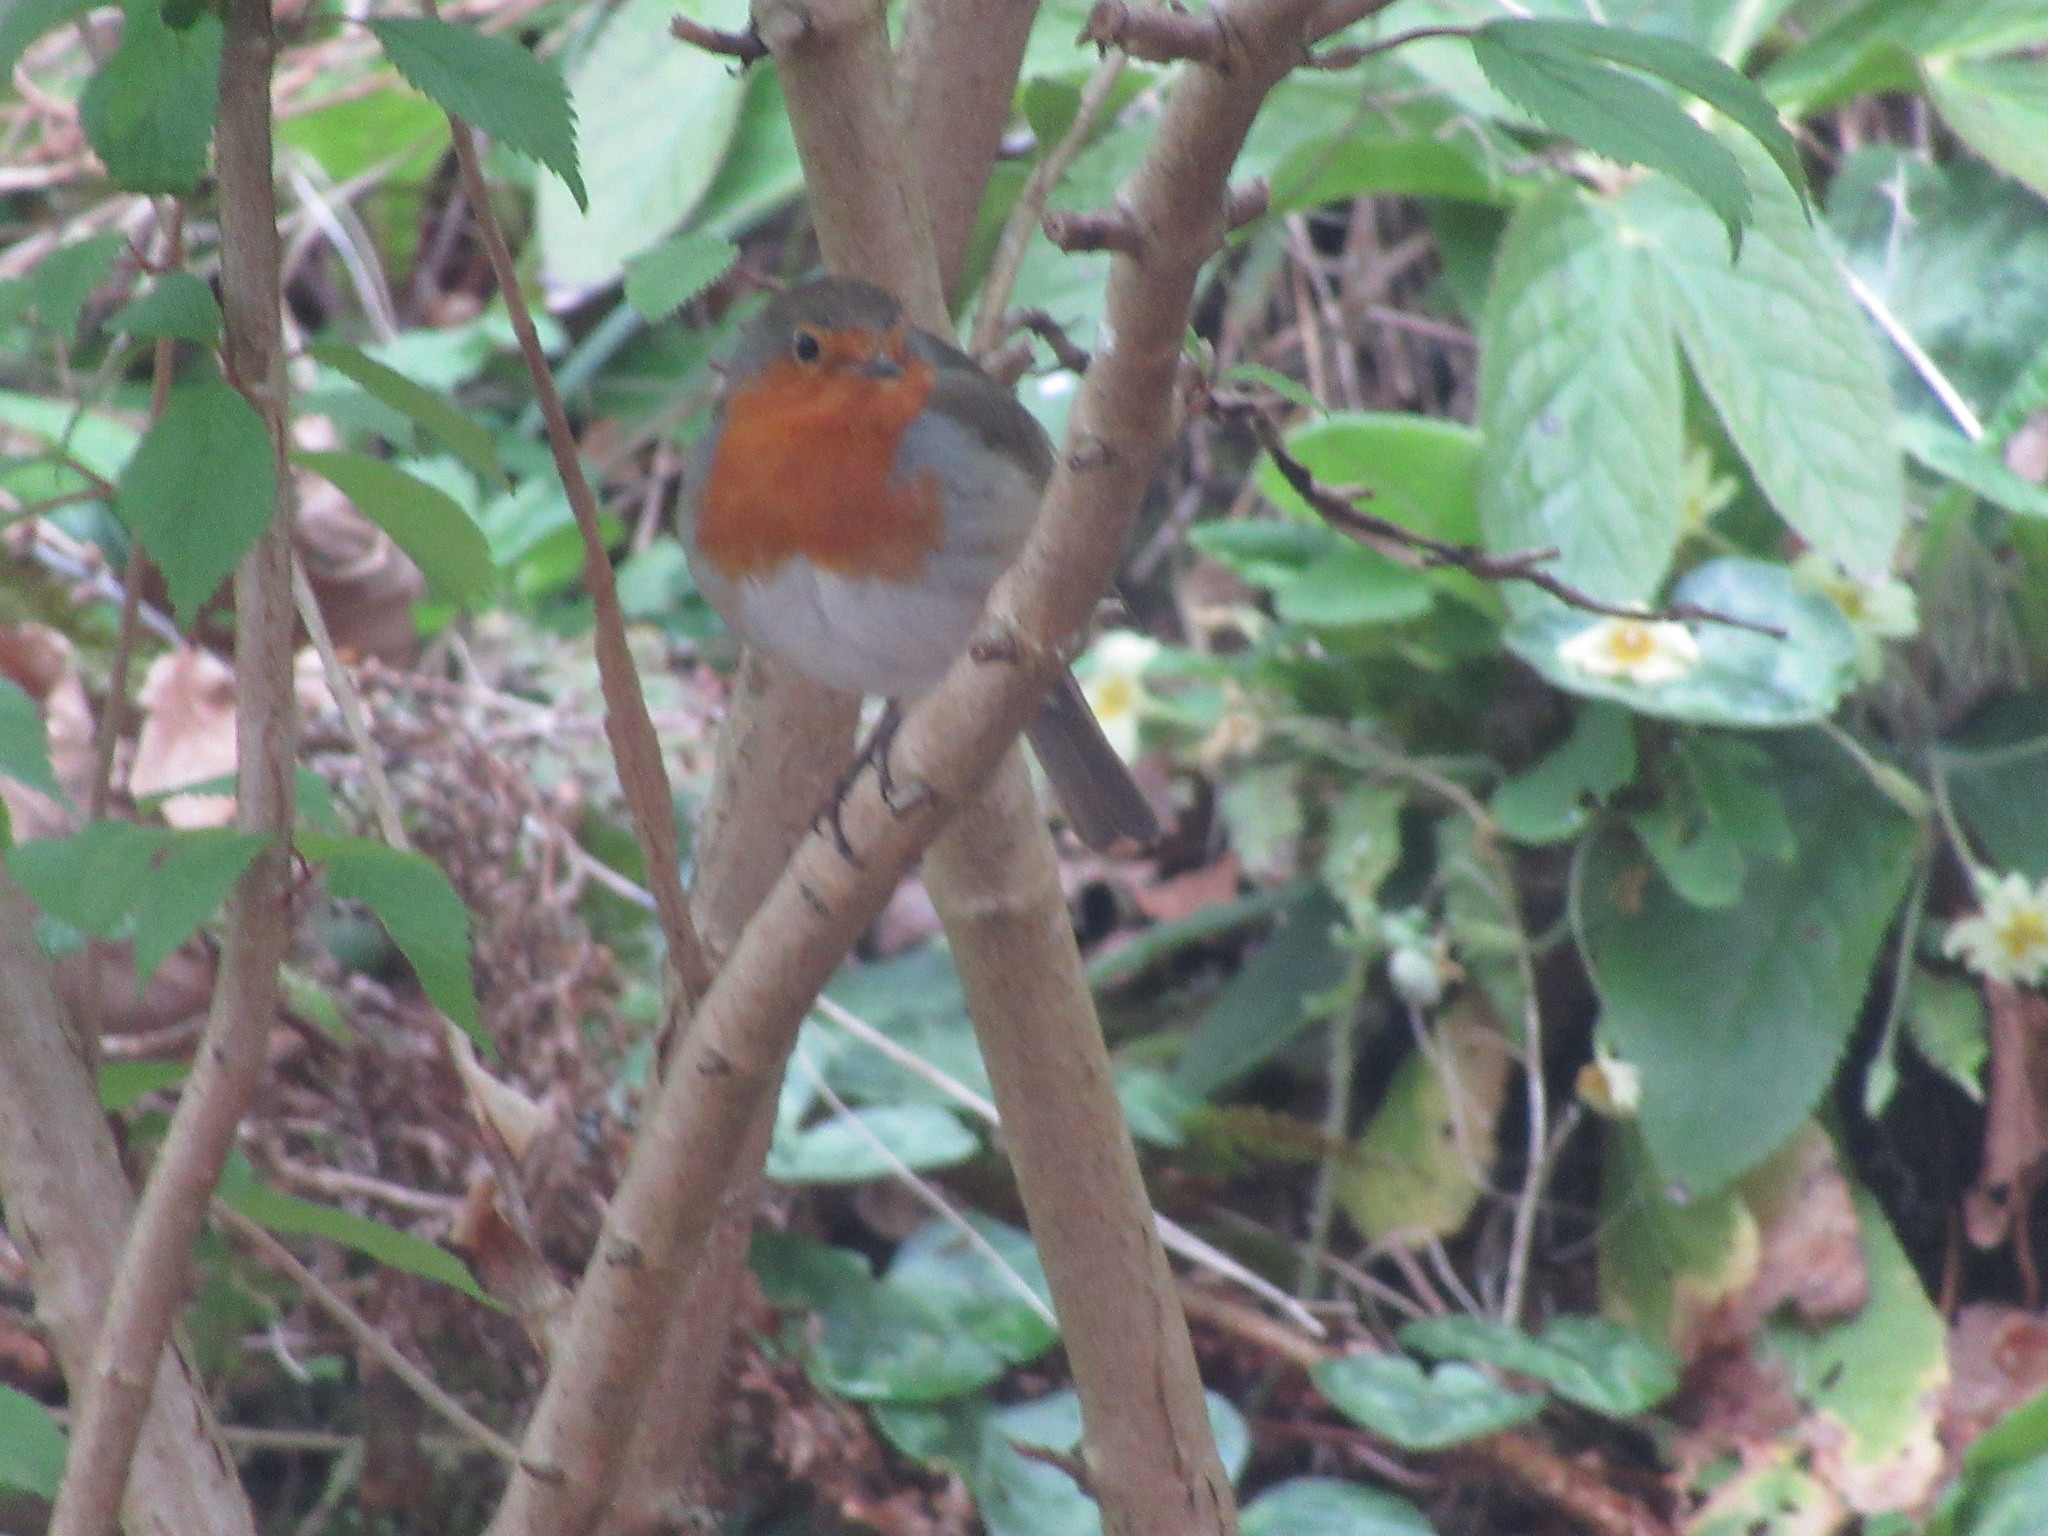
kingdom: Animalia
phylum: Chordata
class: Aves
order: Passeriformes
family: Muscicapidae
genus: Erithacus
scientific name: Erithacus rubecula
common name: European robin
